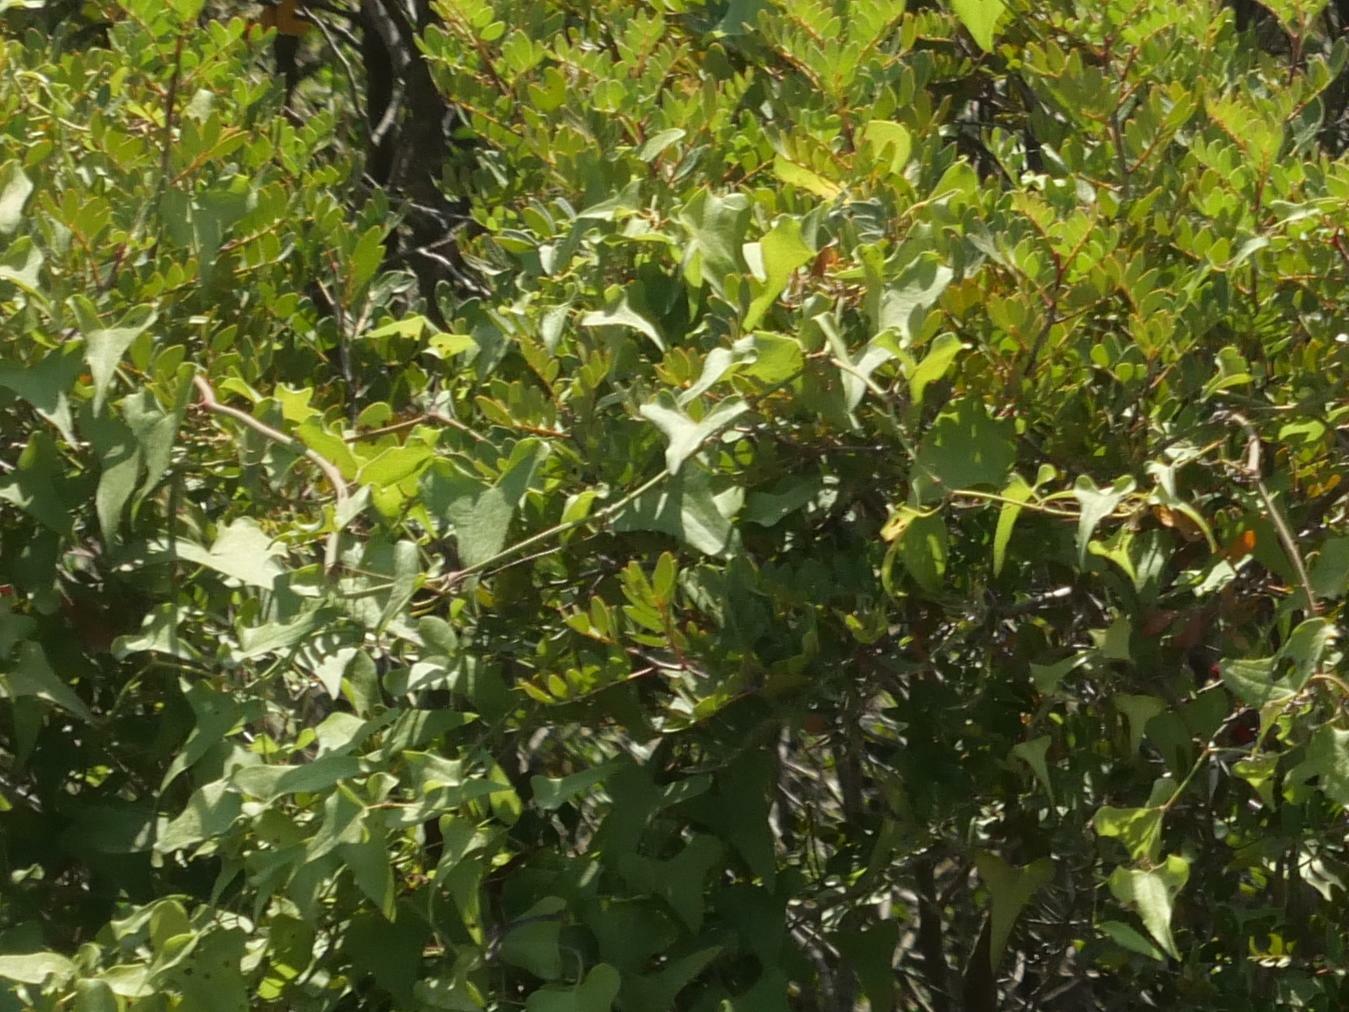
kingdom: Plantae
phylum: Tracheophyta
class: Liliopsida
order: Liliales
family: Smilacaceae
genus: Smilax
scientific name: Smilax aspera
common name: Common smilax
